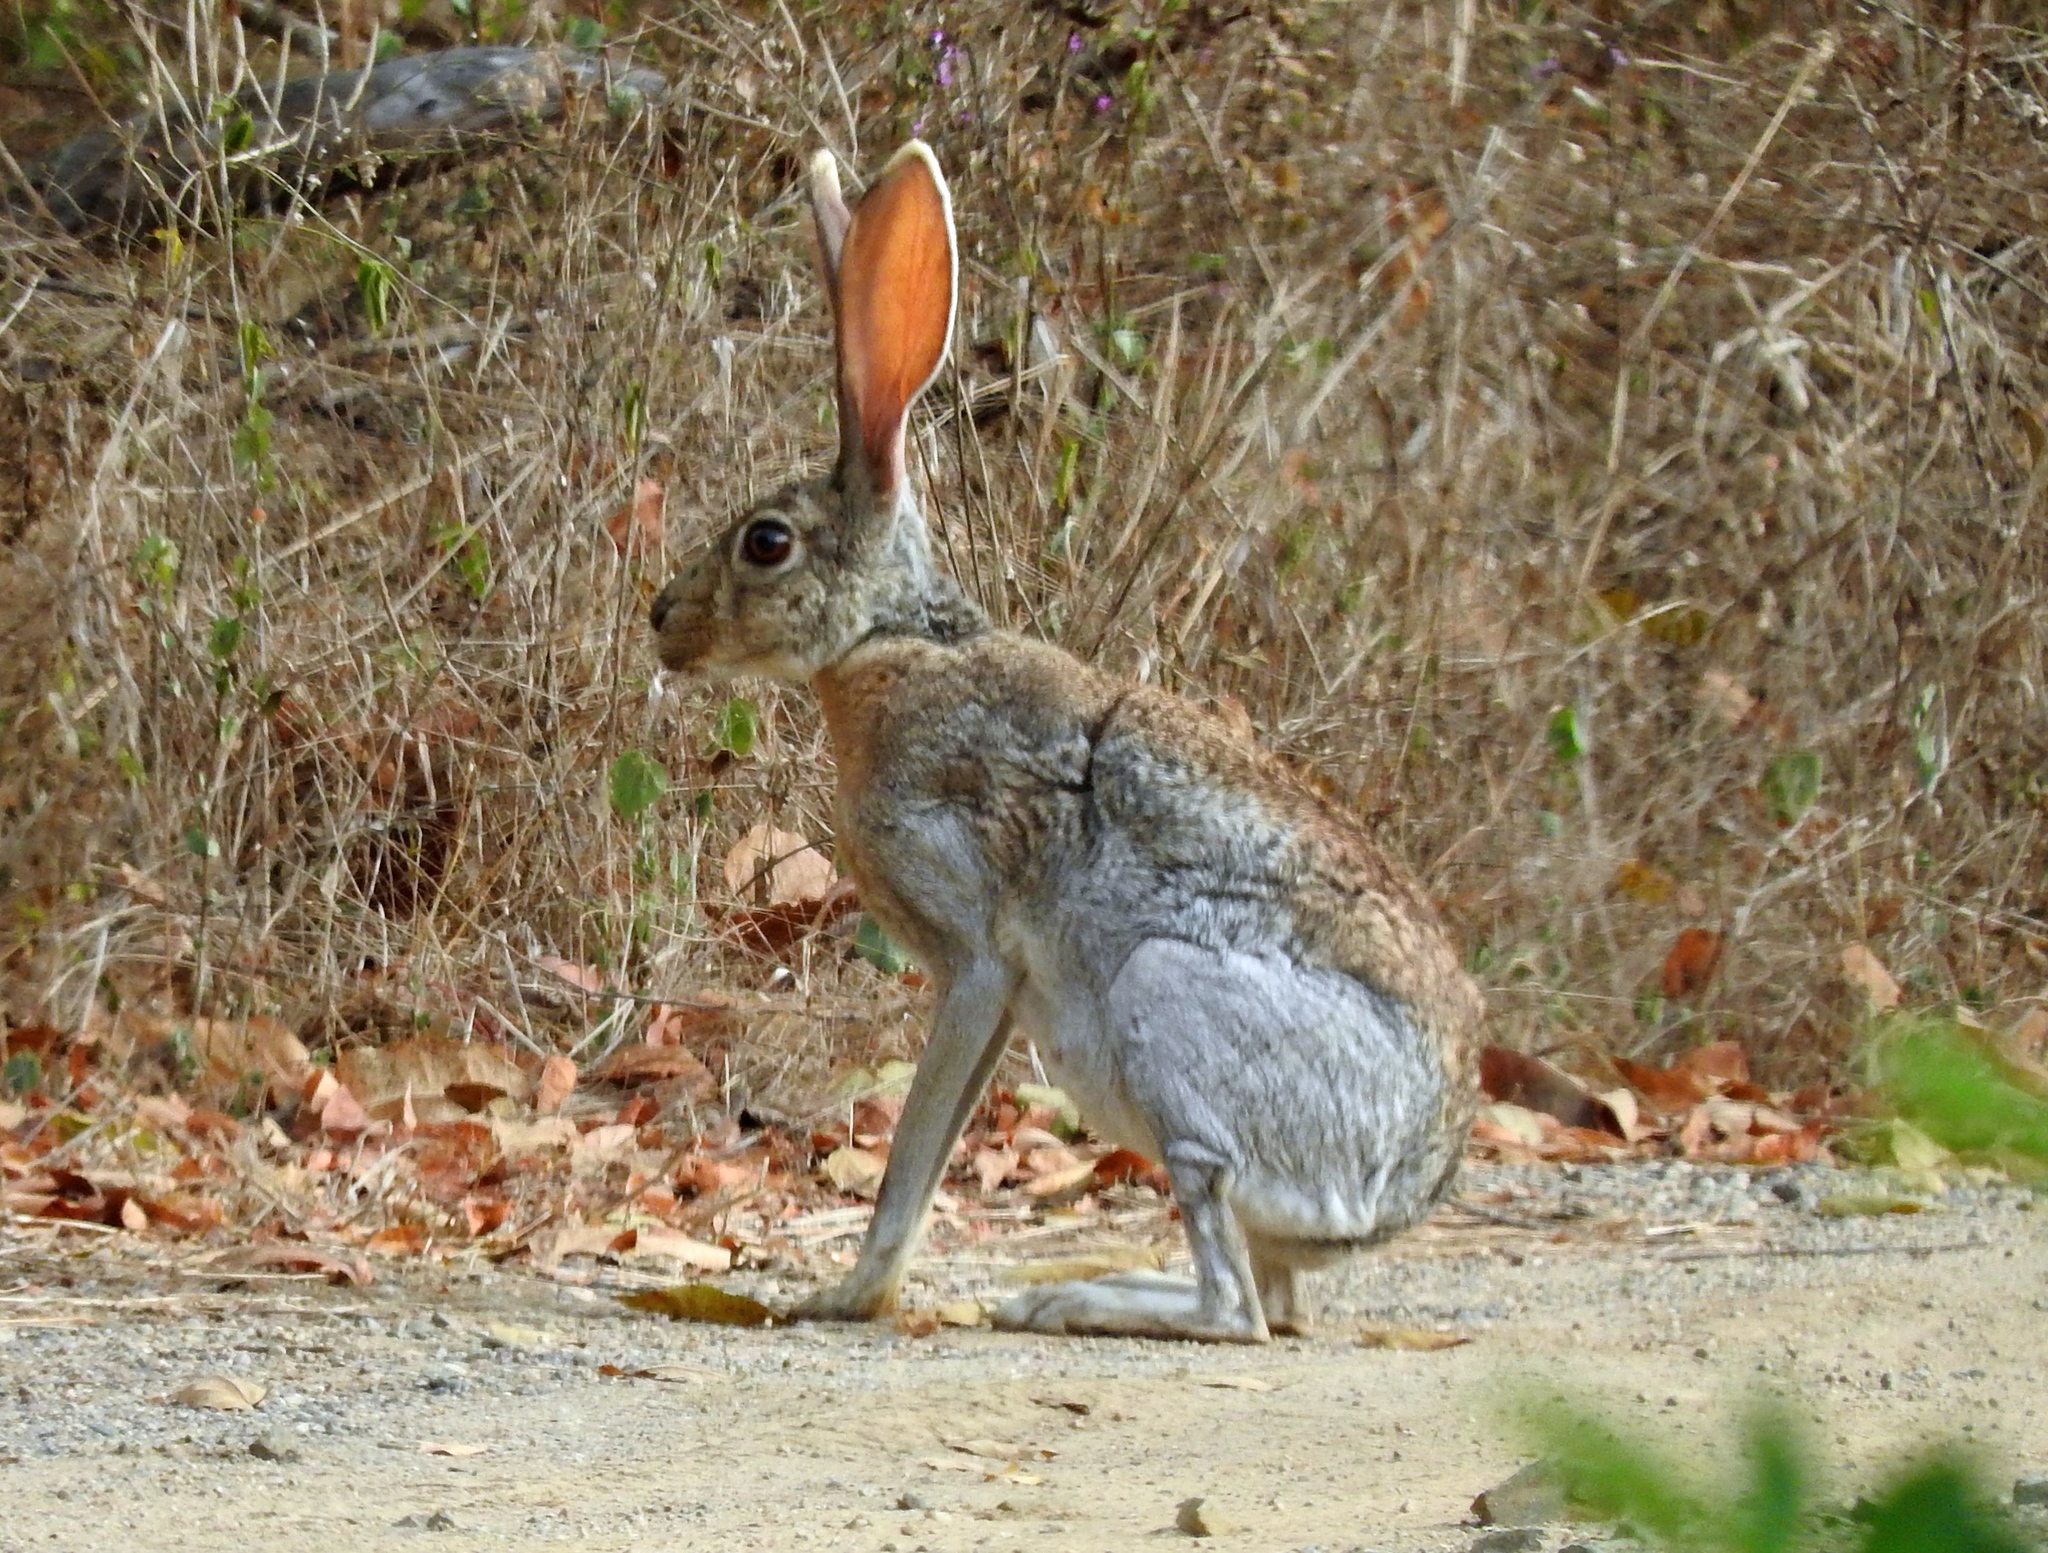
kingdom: Animalia
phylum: Chordata
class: Mammalia
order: Lagomorpha
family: Leporidae
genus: Lepus
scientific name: Lepus alleni
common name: Antelope jackrabbit
